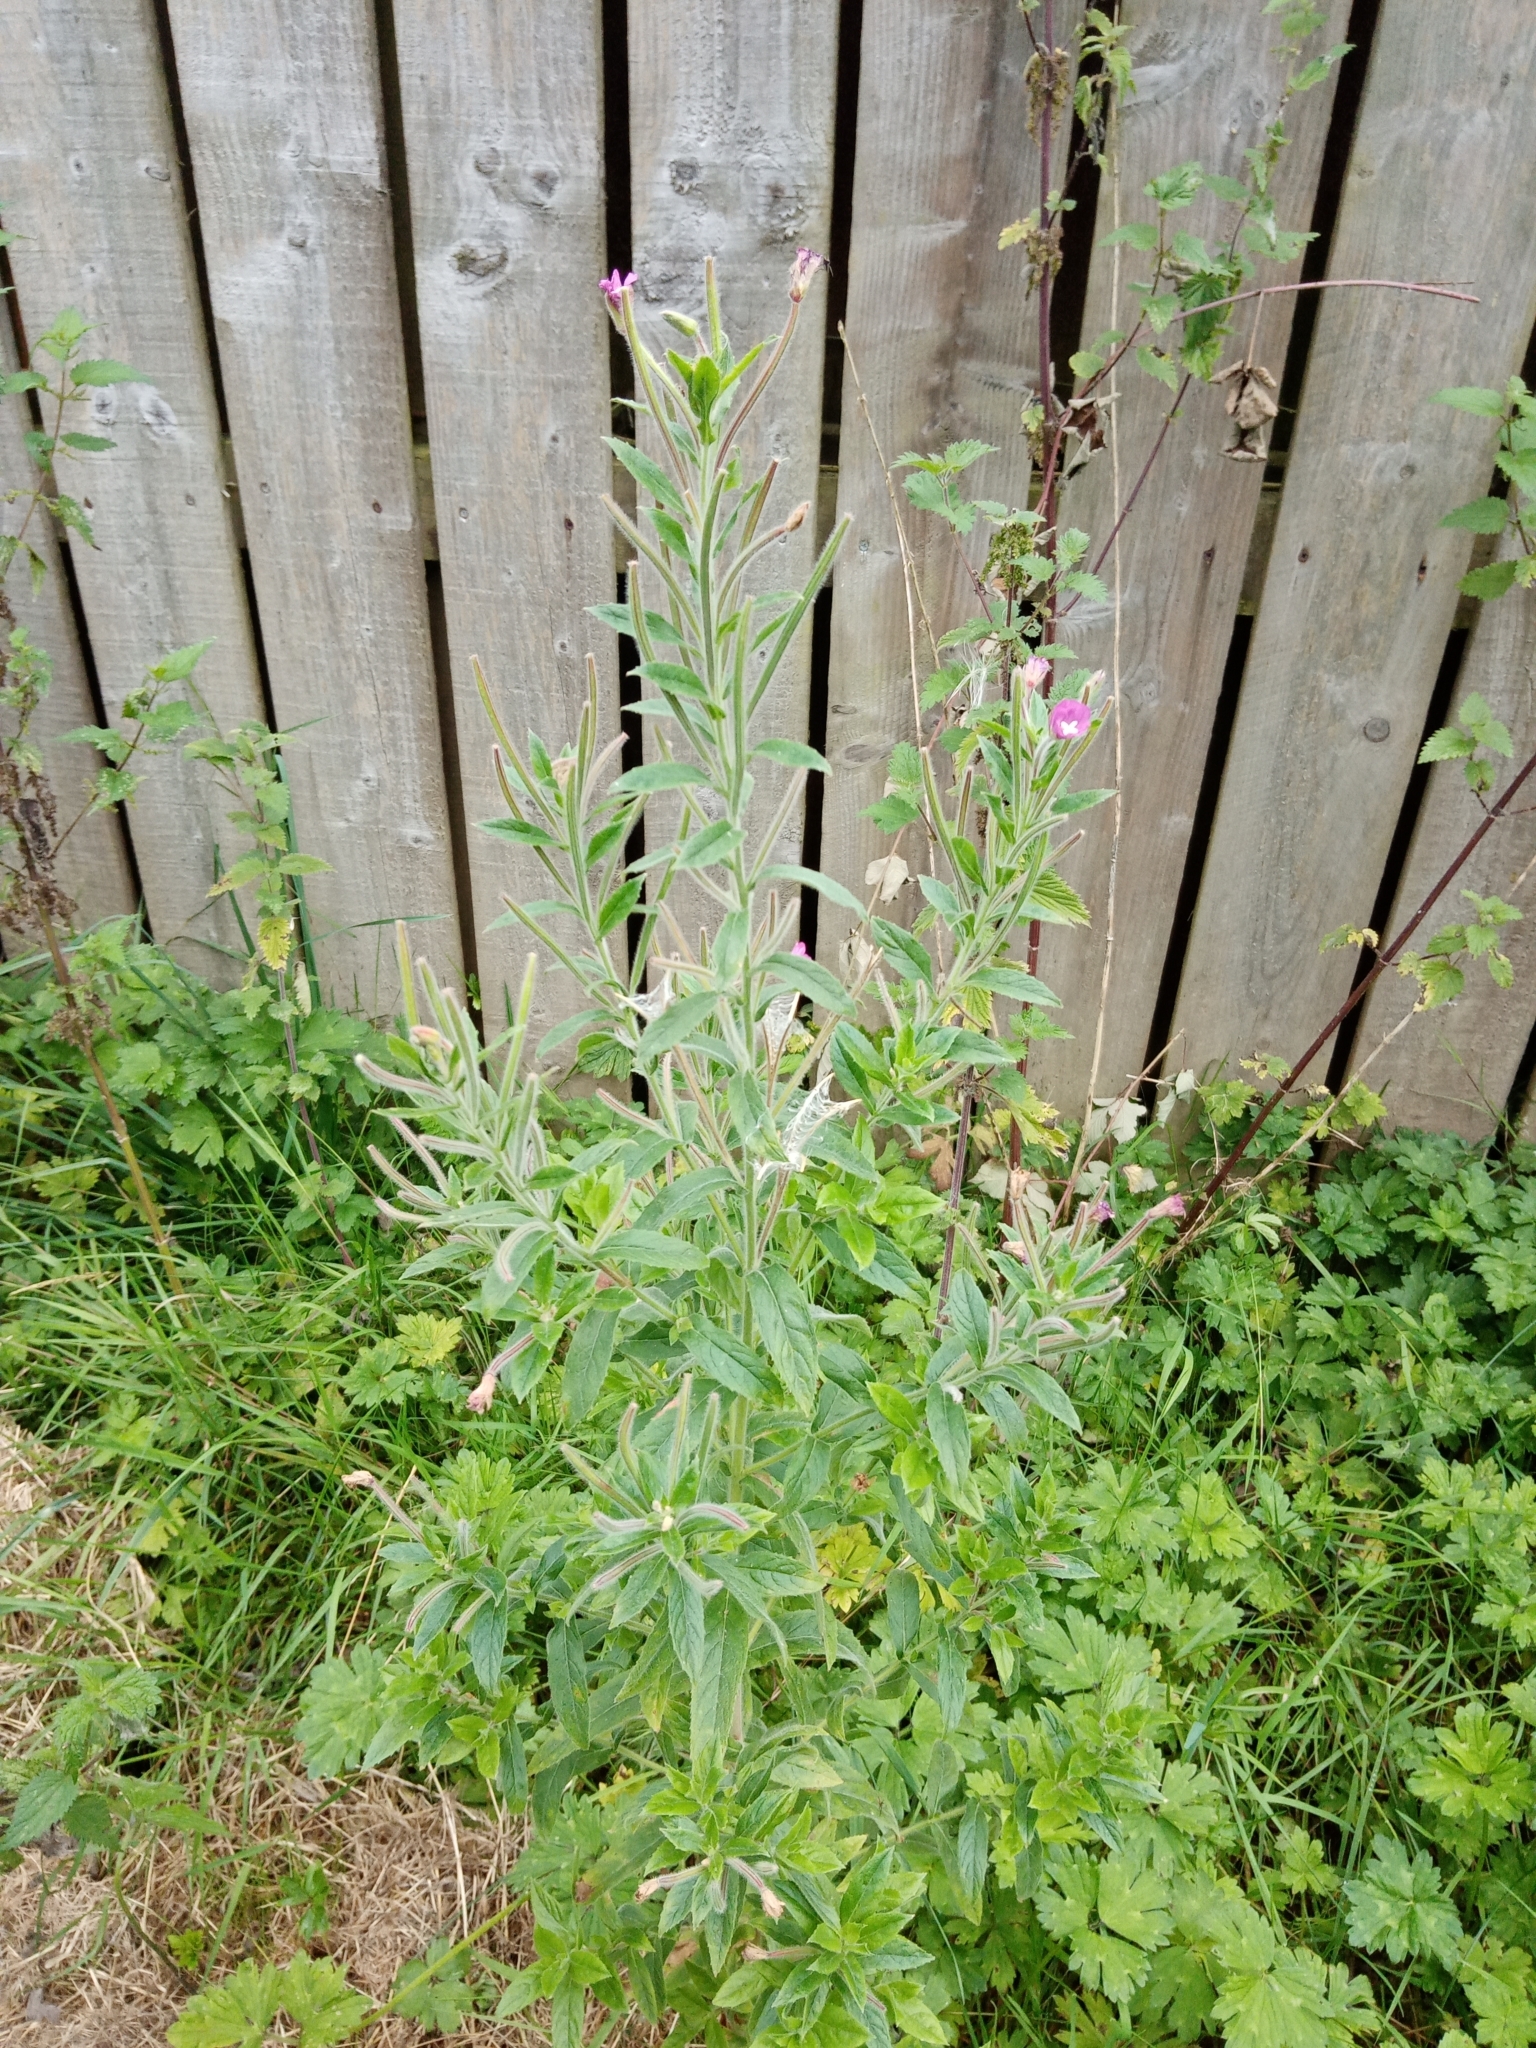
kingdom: Plantae
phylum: Tracheophyta
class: Magnoliopsida
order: Myrtales
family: Onagraceae
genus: Epilobium
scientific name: Epilobium hirsutum
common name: Great willowherb
